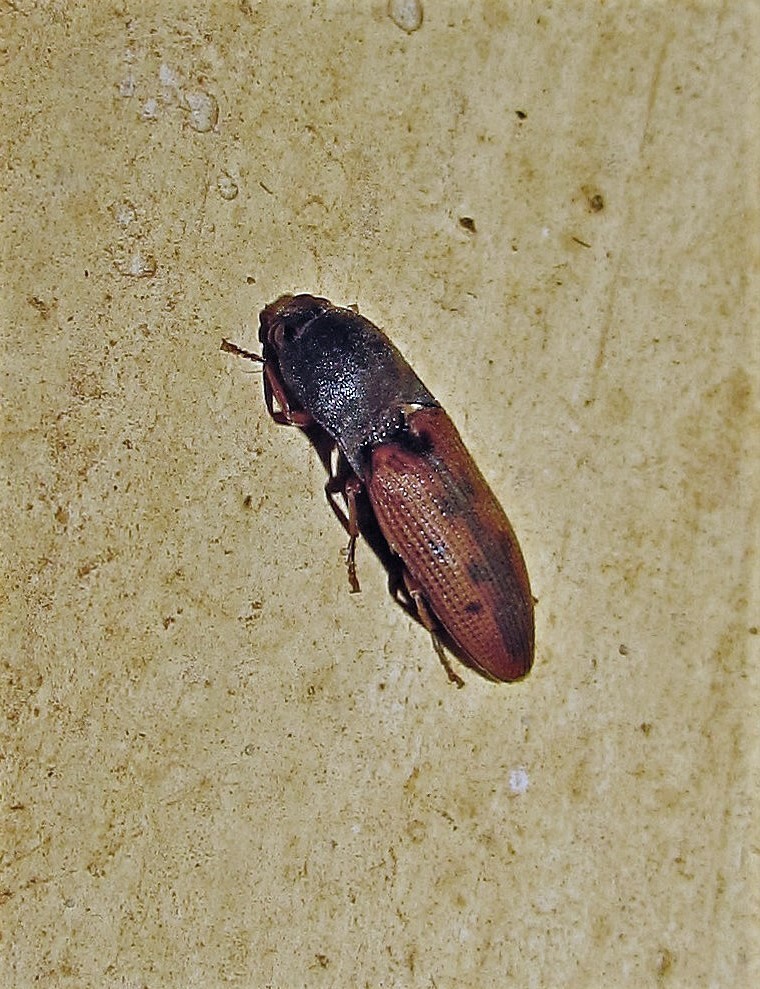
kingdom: Animalia
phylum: Arthropoda
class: Insecta
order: Coleoptera
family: Elateridae
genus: Monocrepidius
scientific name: Monocrepidius
